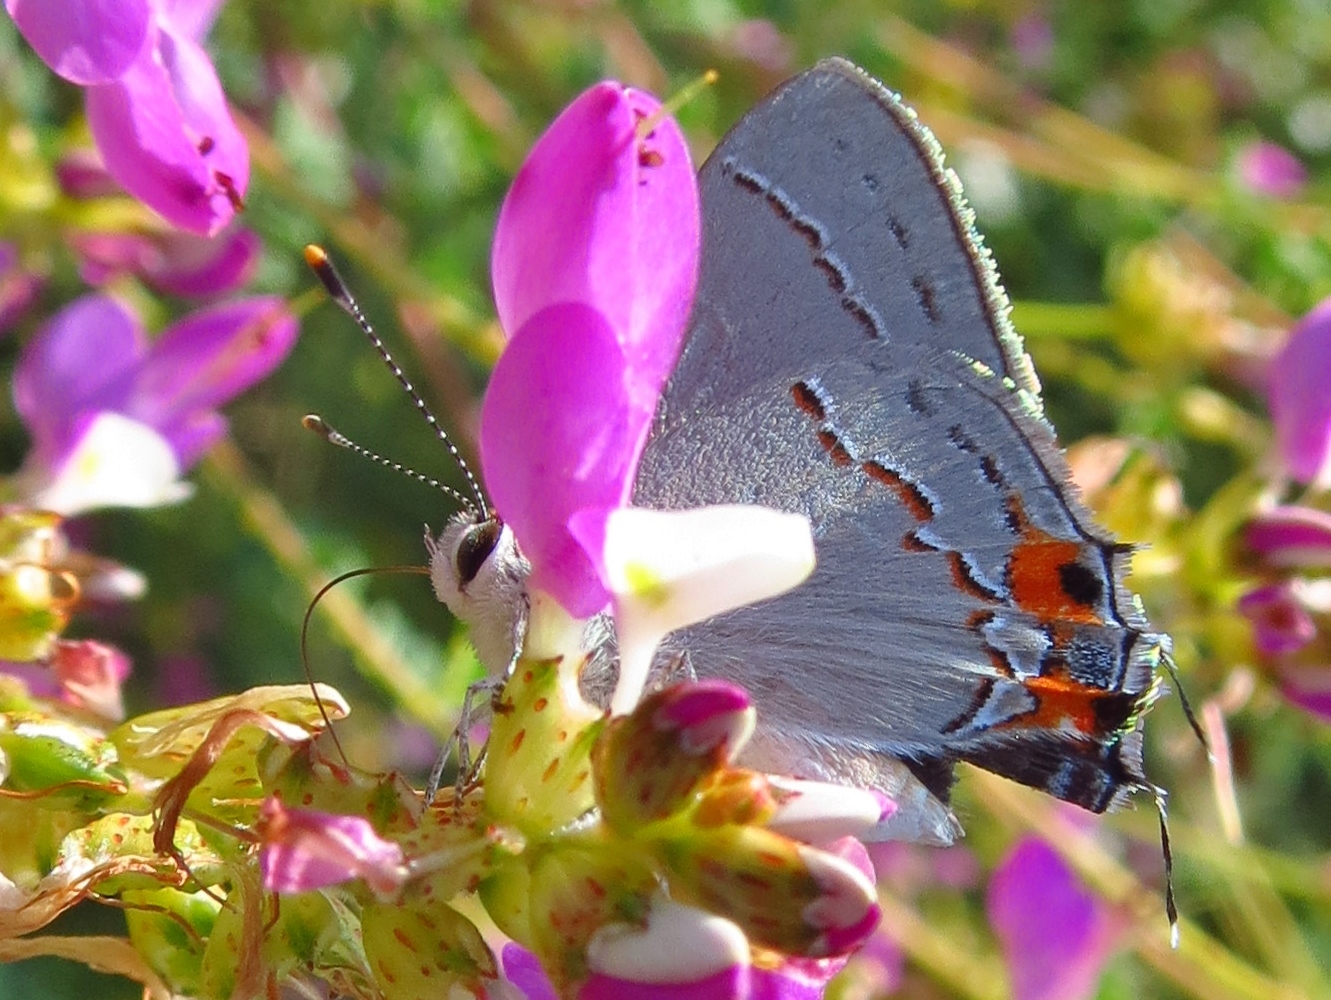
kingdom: Animalia
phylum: Arthropoda
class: Insecta
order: Lepidoptera
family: Lycaenidae
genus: Strymon
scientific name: Strymon melinus
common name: Gray hairstreak
